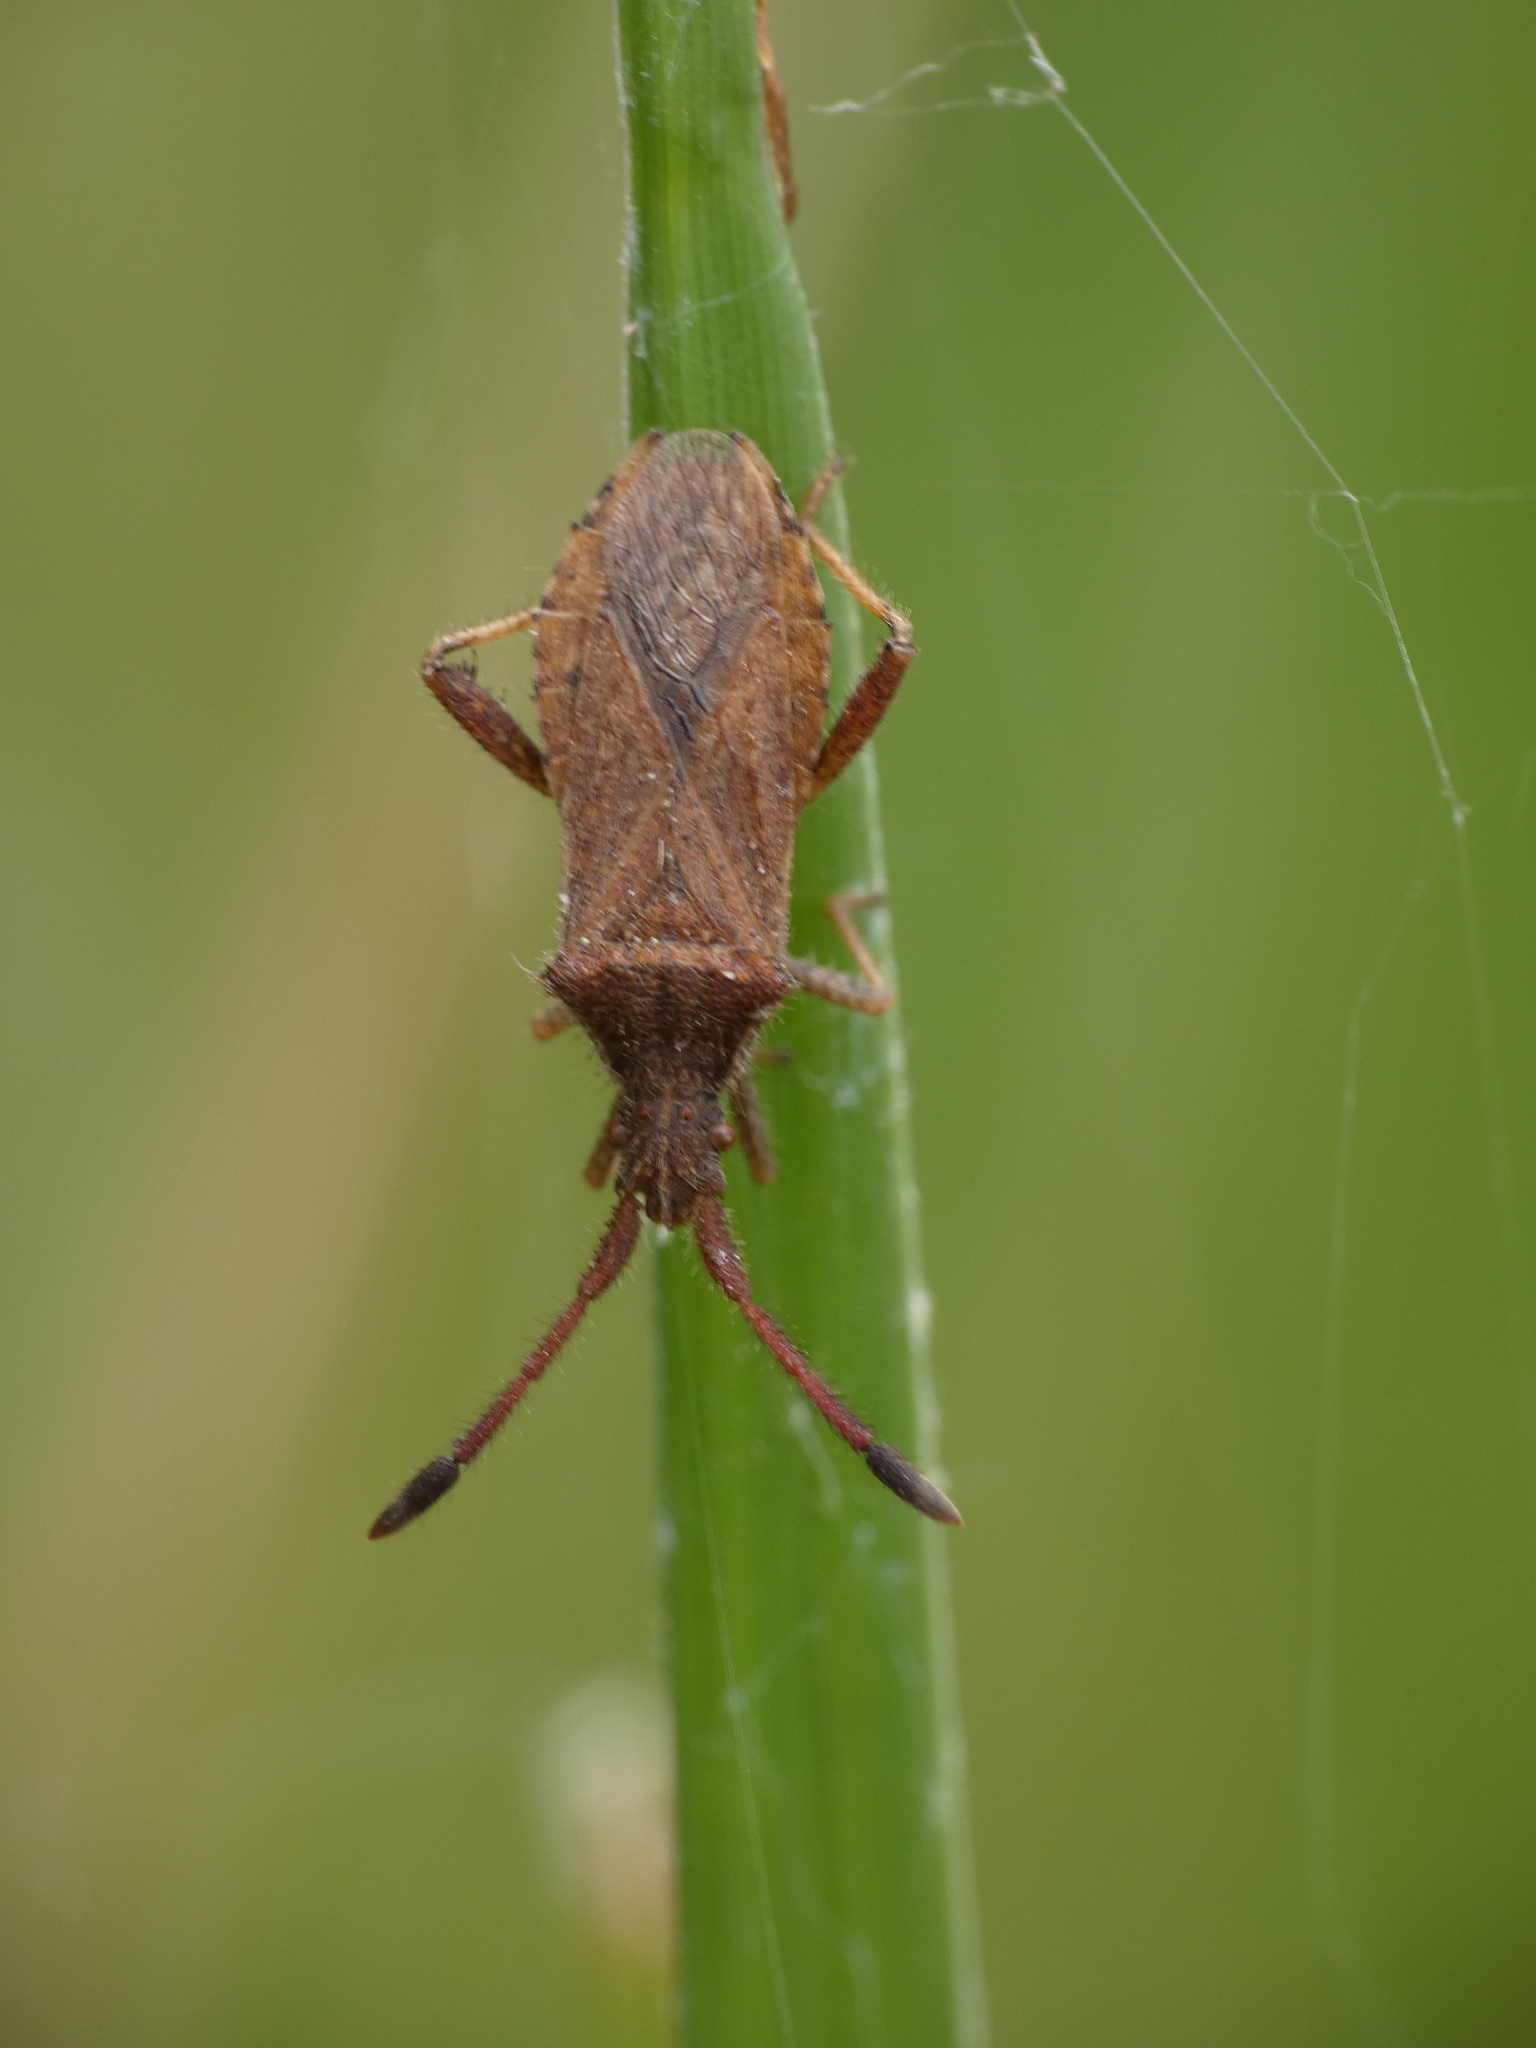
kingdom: Animalia
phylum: Arthropoda
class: Insecta
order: Hemiptera
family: Coreidae
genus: Coriomeris
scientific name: Coriomeris denticulatus
